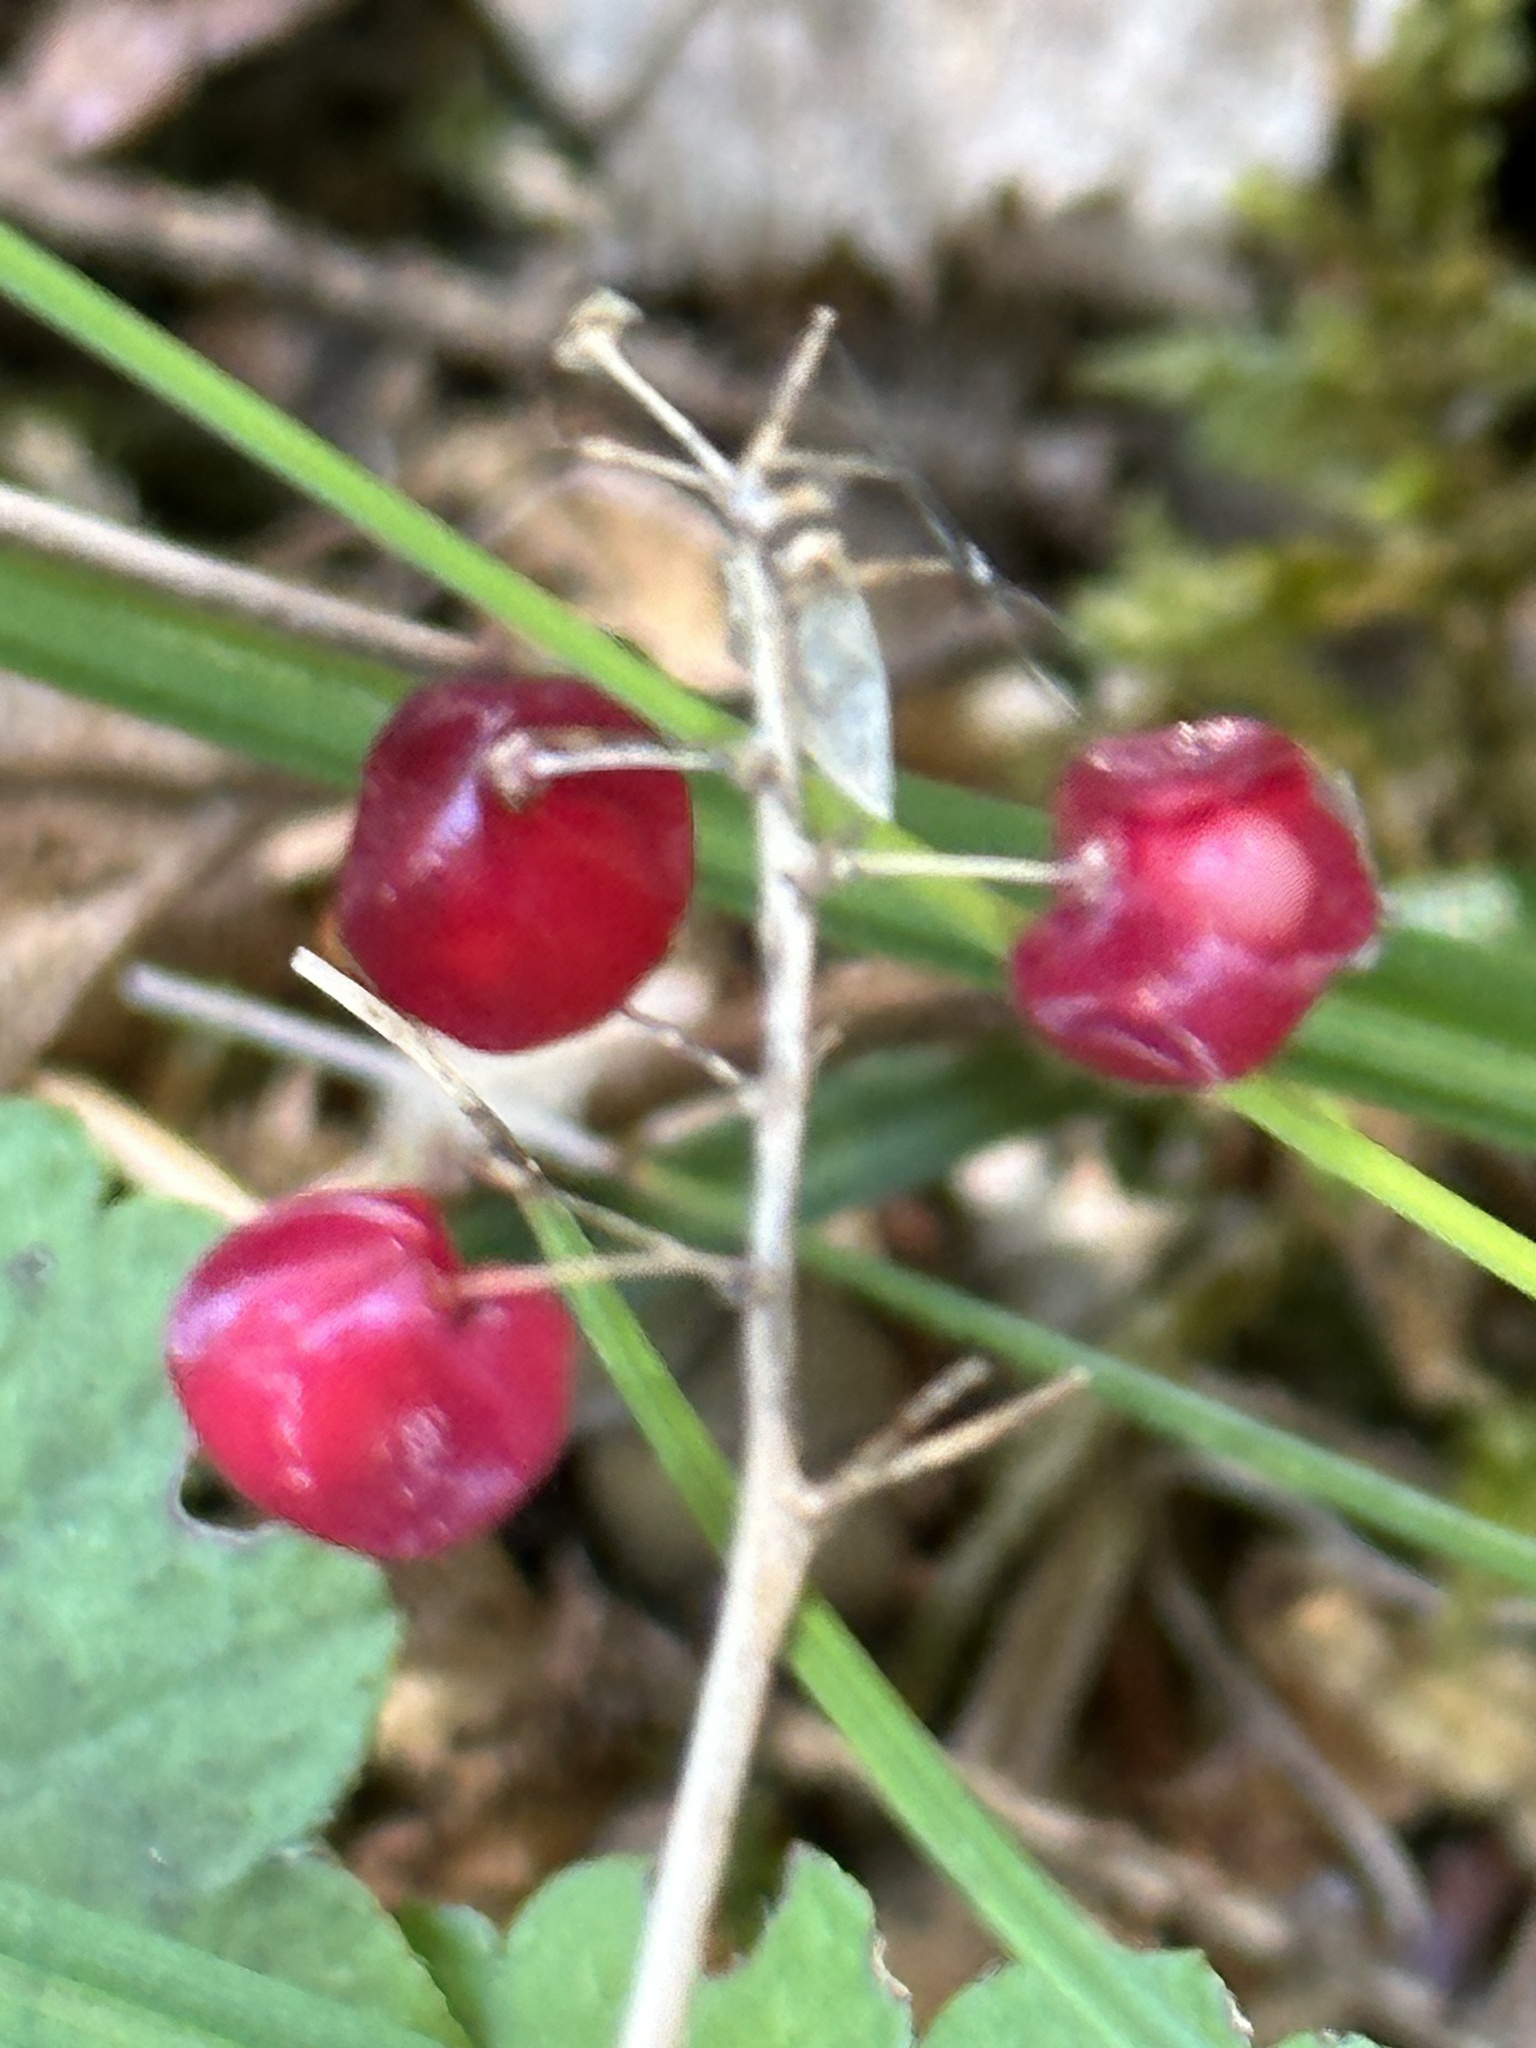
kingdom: Plantae
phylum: Tracheophyta
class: Liliopsida
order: Asparagales
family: Asparagaceae
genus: Maianthemum
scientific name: Maianthemum canadense
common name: False lily-of-the-valley
